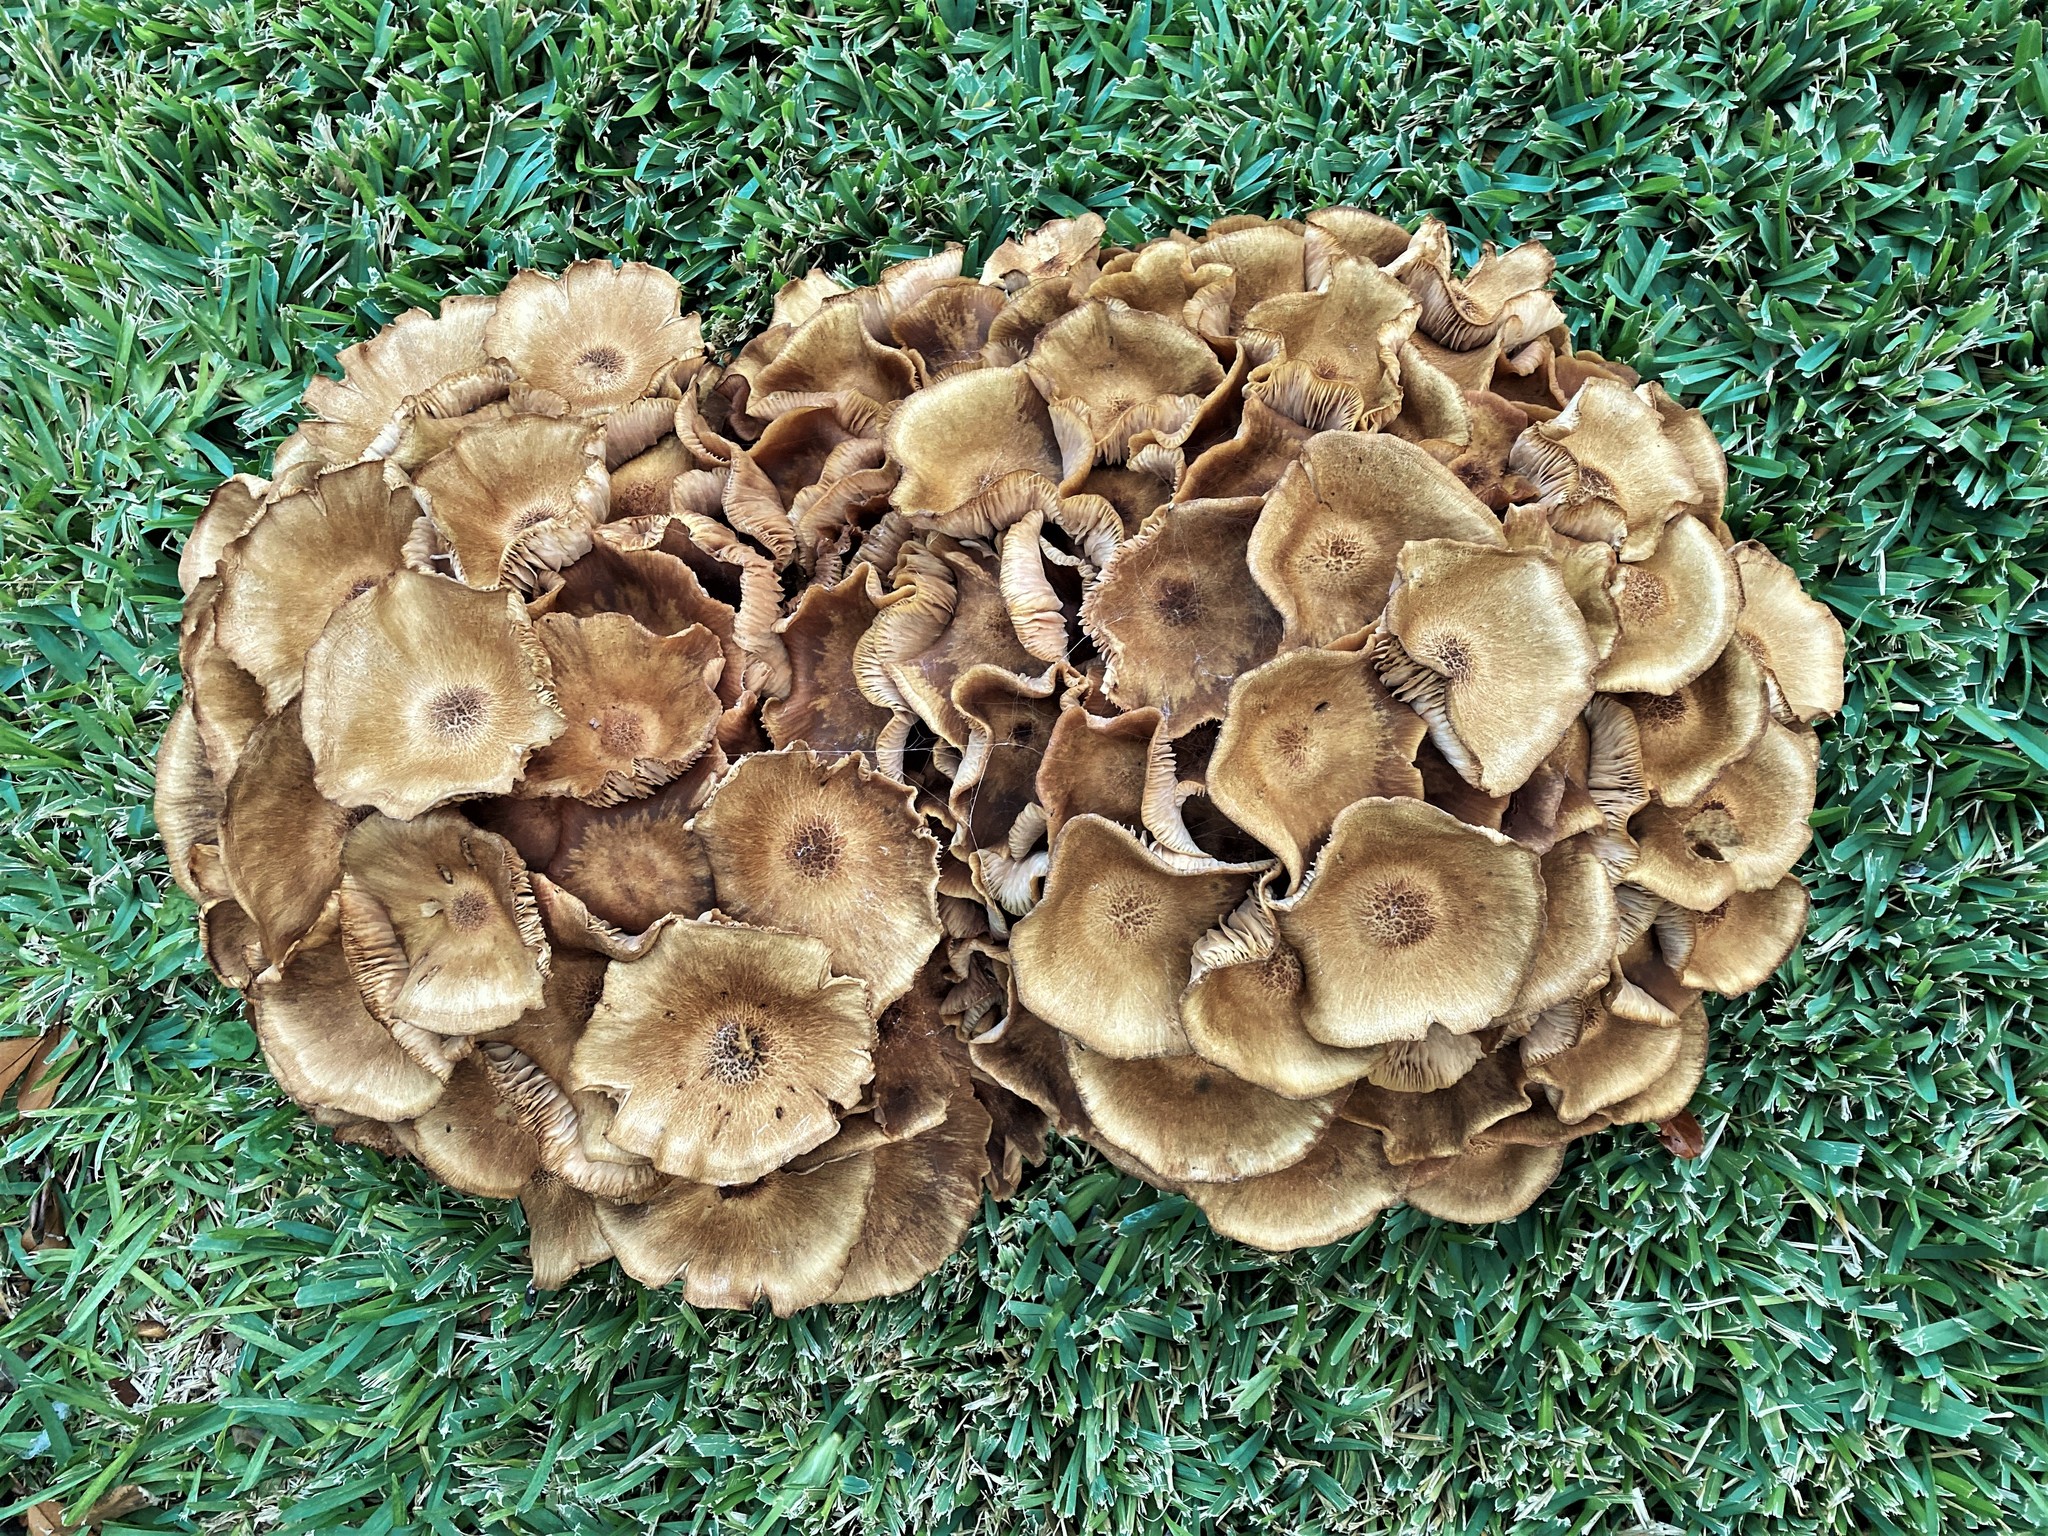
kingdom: Fungi
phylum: Basidiomycota
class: Agaricomycetes
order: Agaricales
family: Physalacriaceae
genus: Desarmillaria
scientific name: Desarmillaria caespitosa
